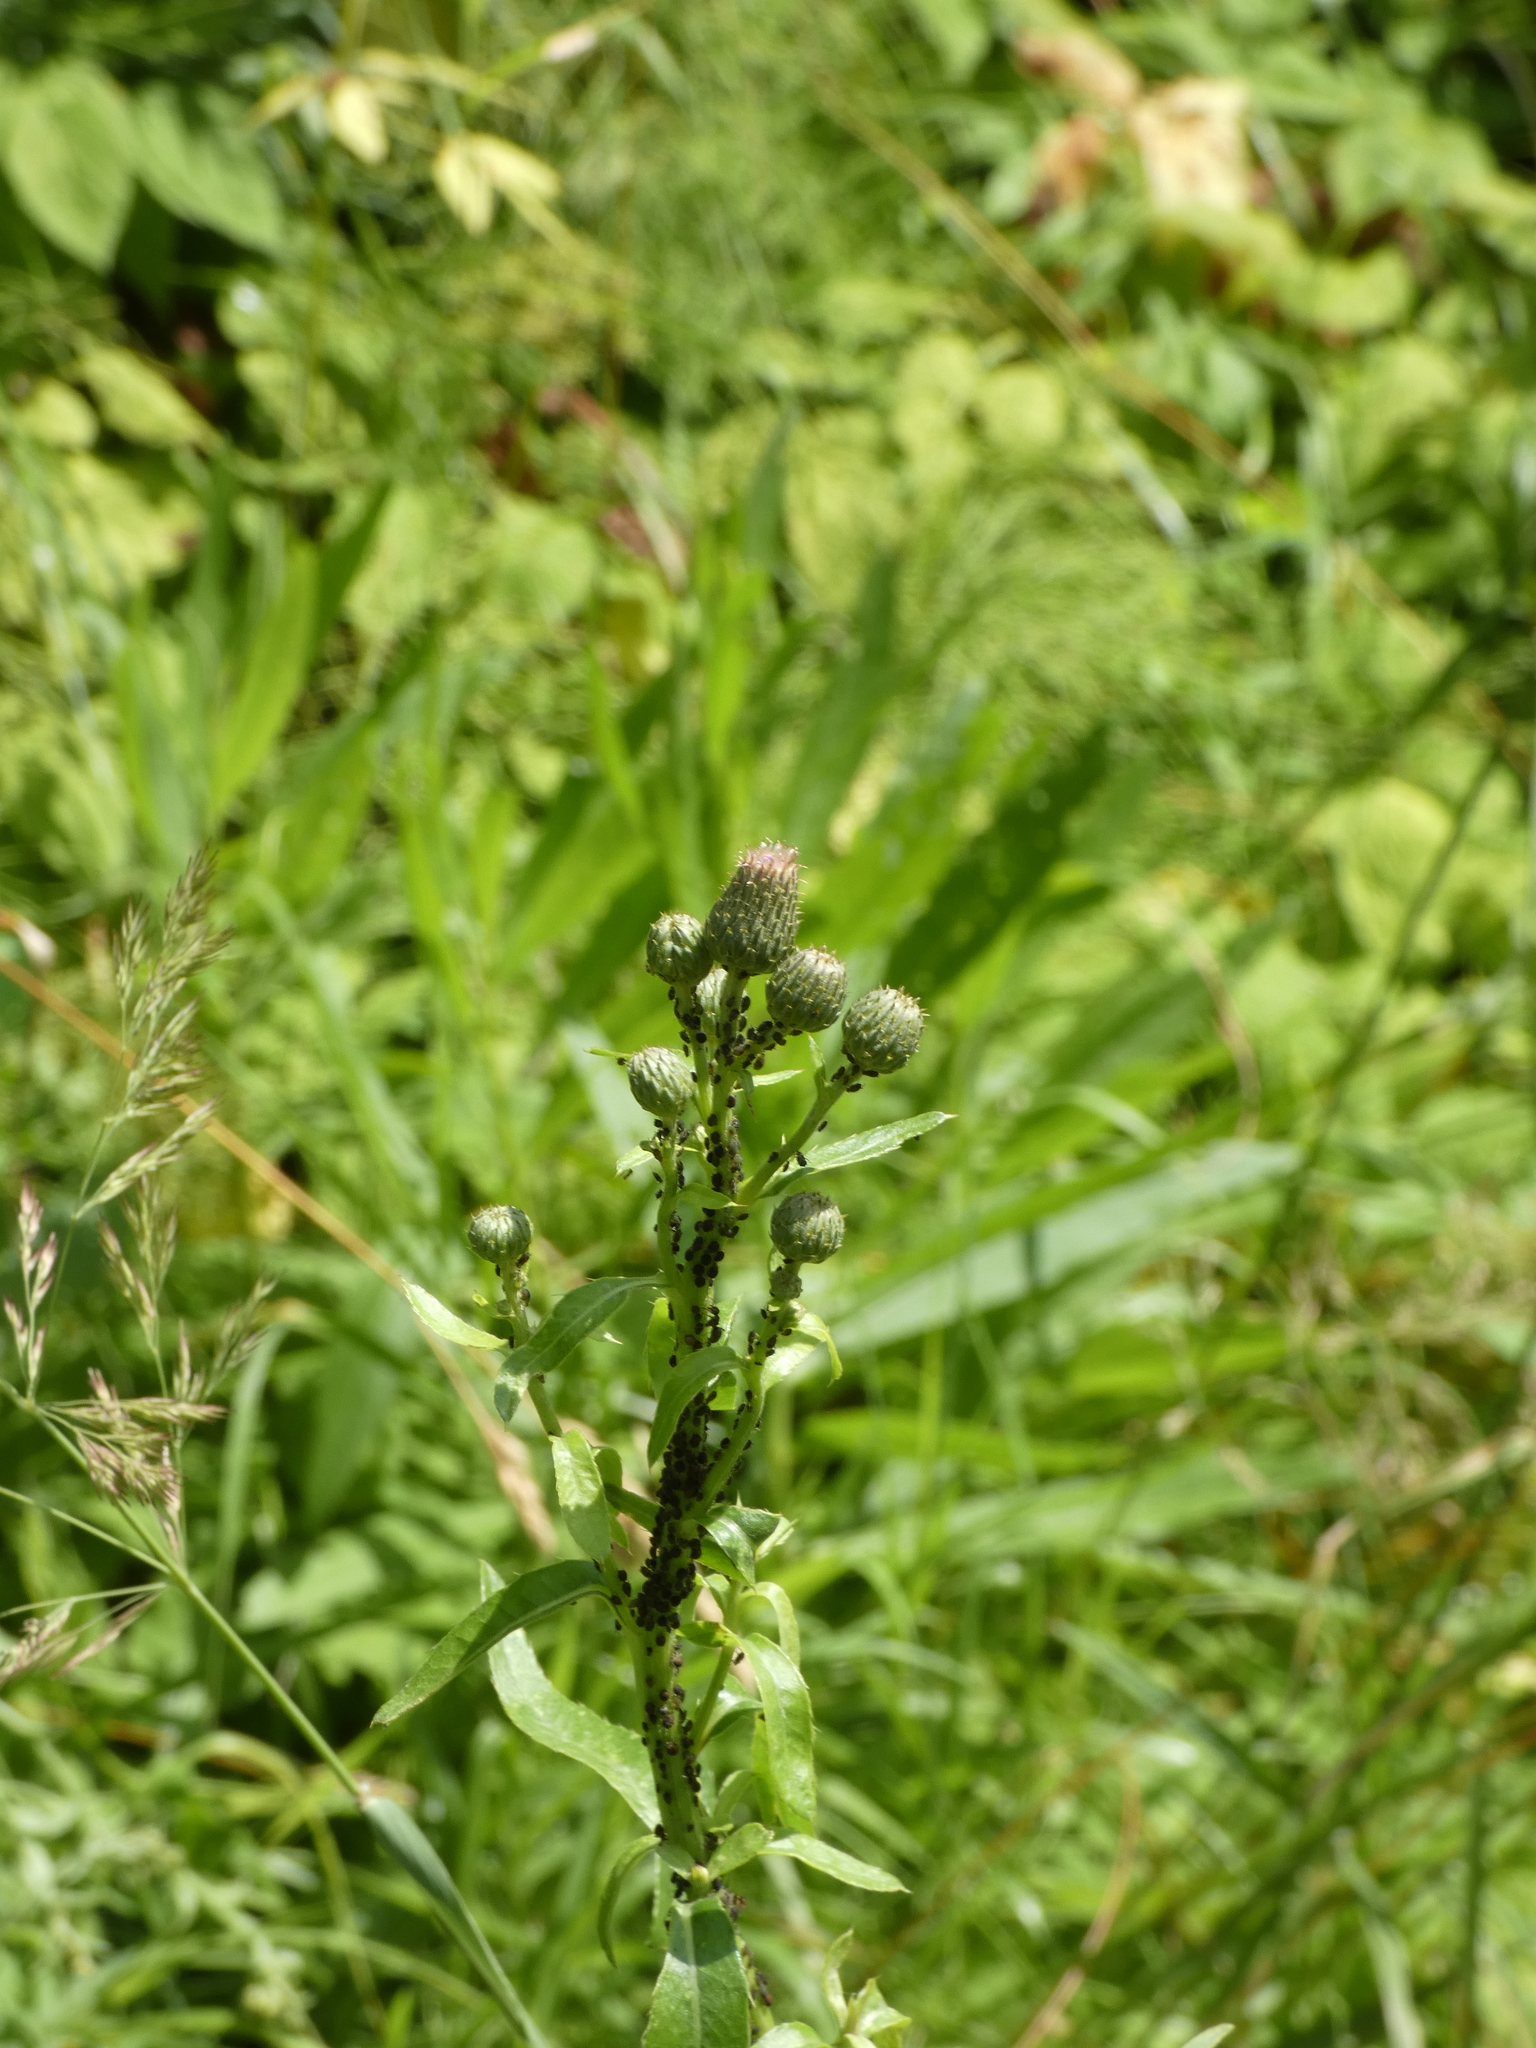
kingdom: Plantae
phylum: Tracheophyta
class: Magnoliopsida
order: Asterales
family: Asteraceae
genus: Cirsium
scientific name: Cirsium arvense
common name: Creeping thistle
